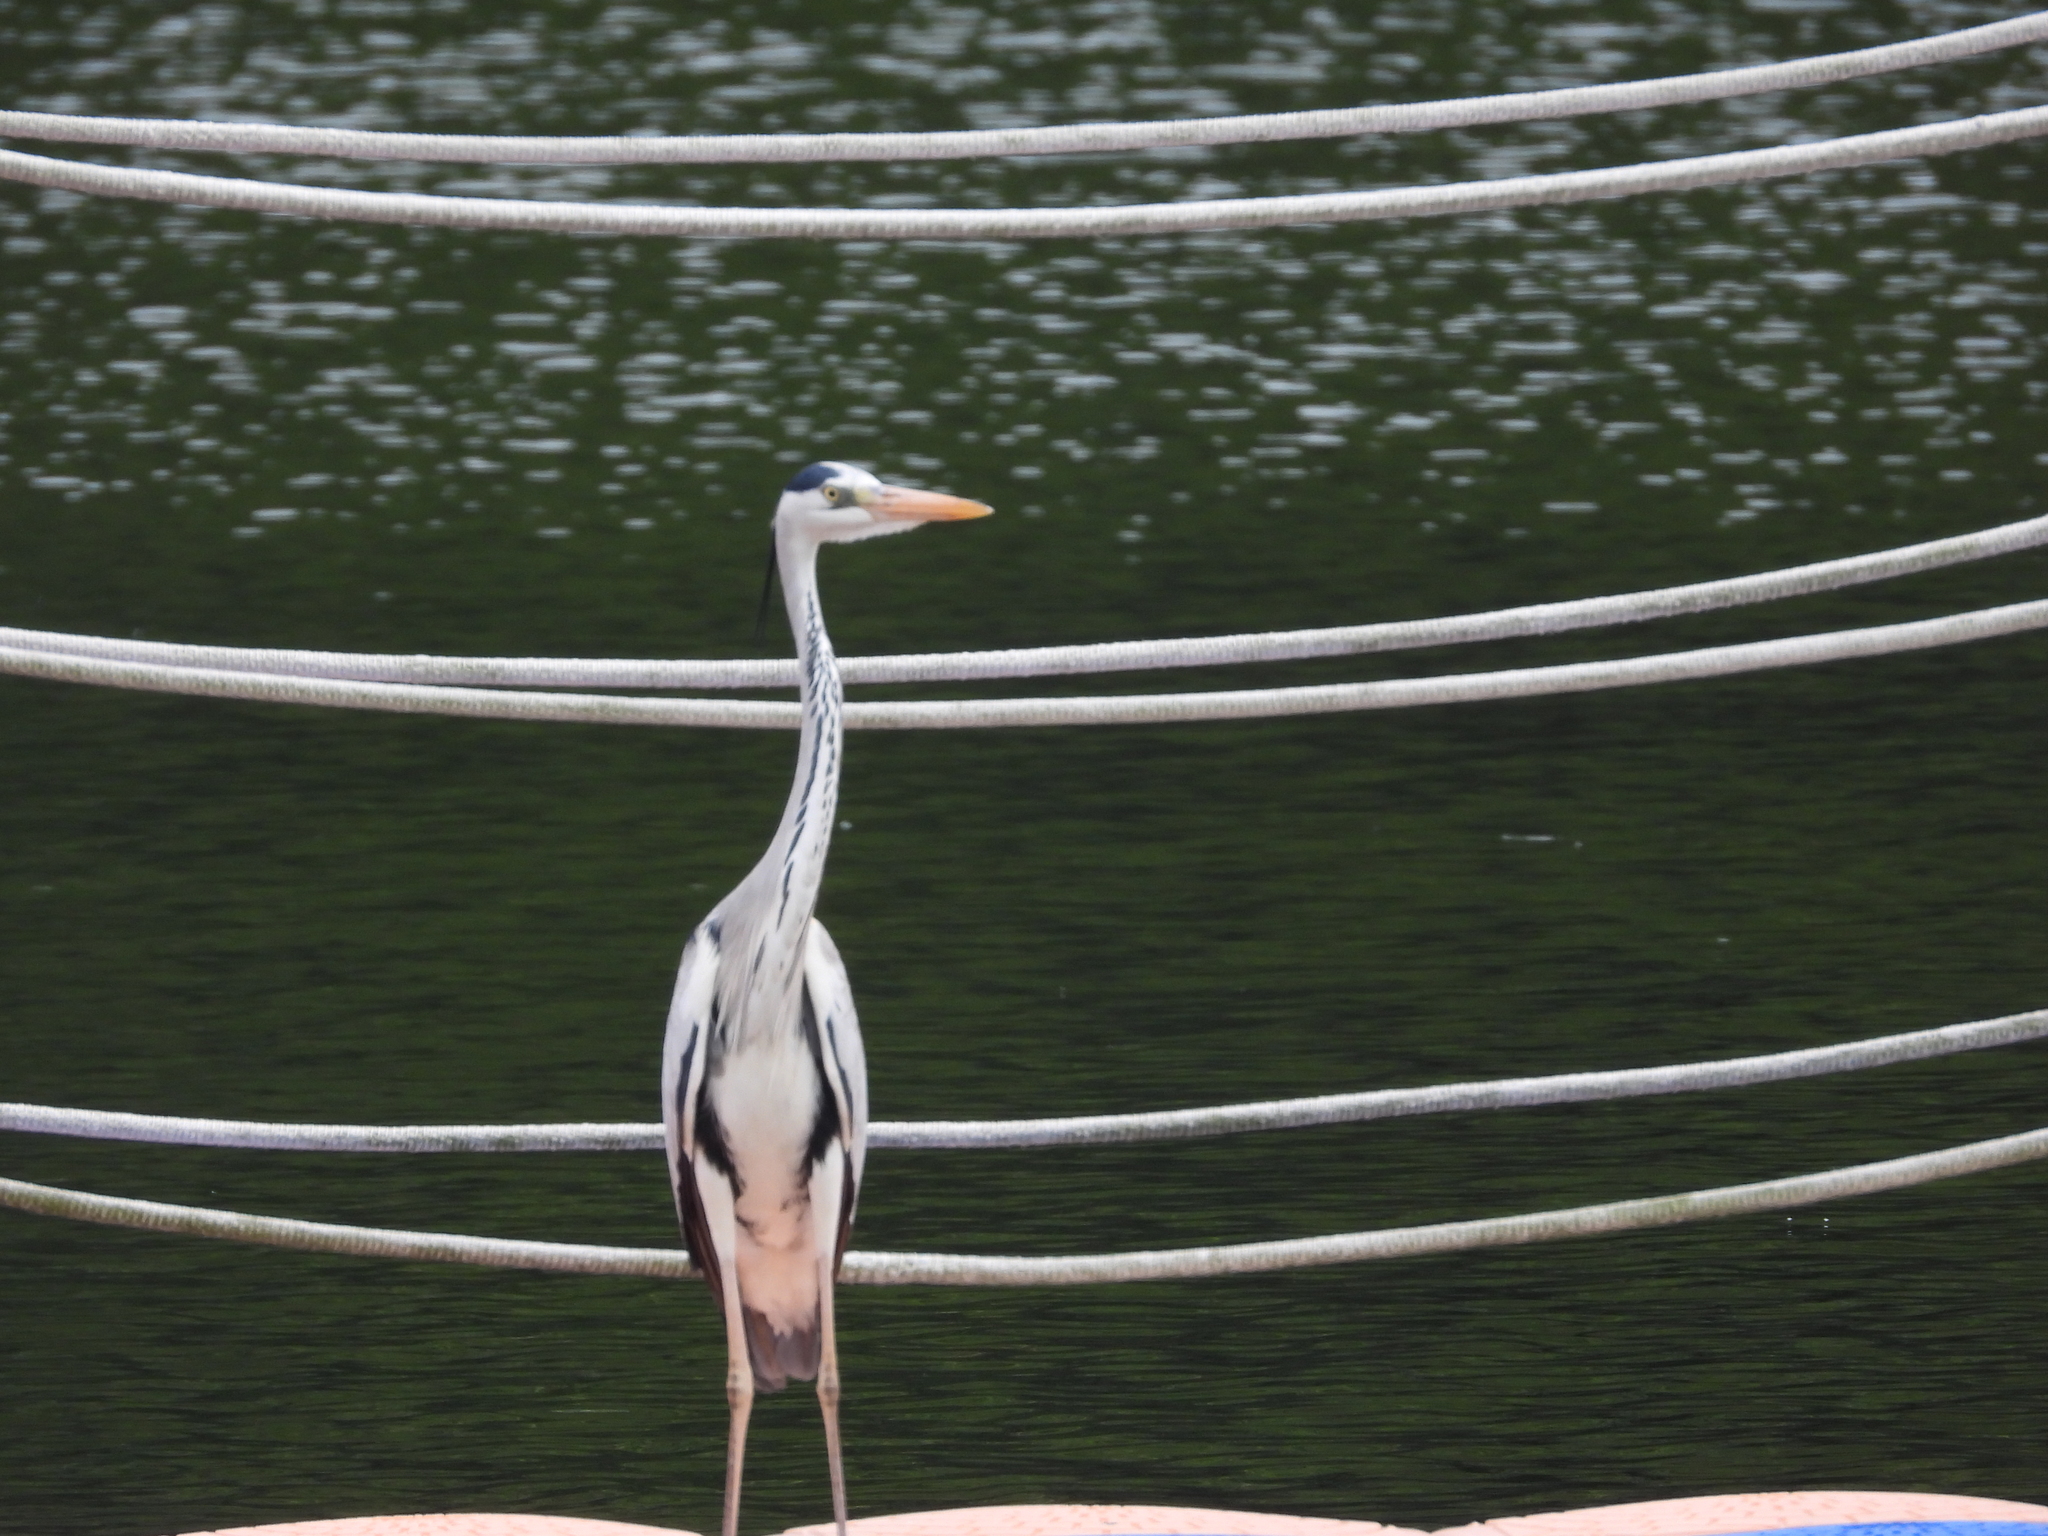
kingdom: Animalia
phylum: Chordata
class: Aves
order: Pelecaniformes
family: Ardeidae
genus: Ardea
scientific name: Ardea cinerea
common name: Grey heron
